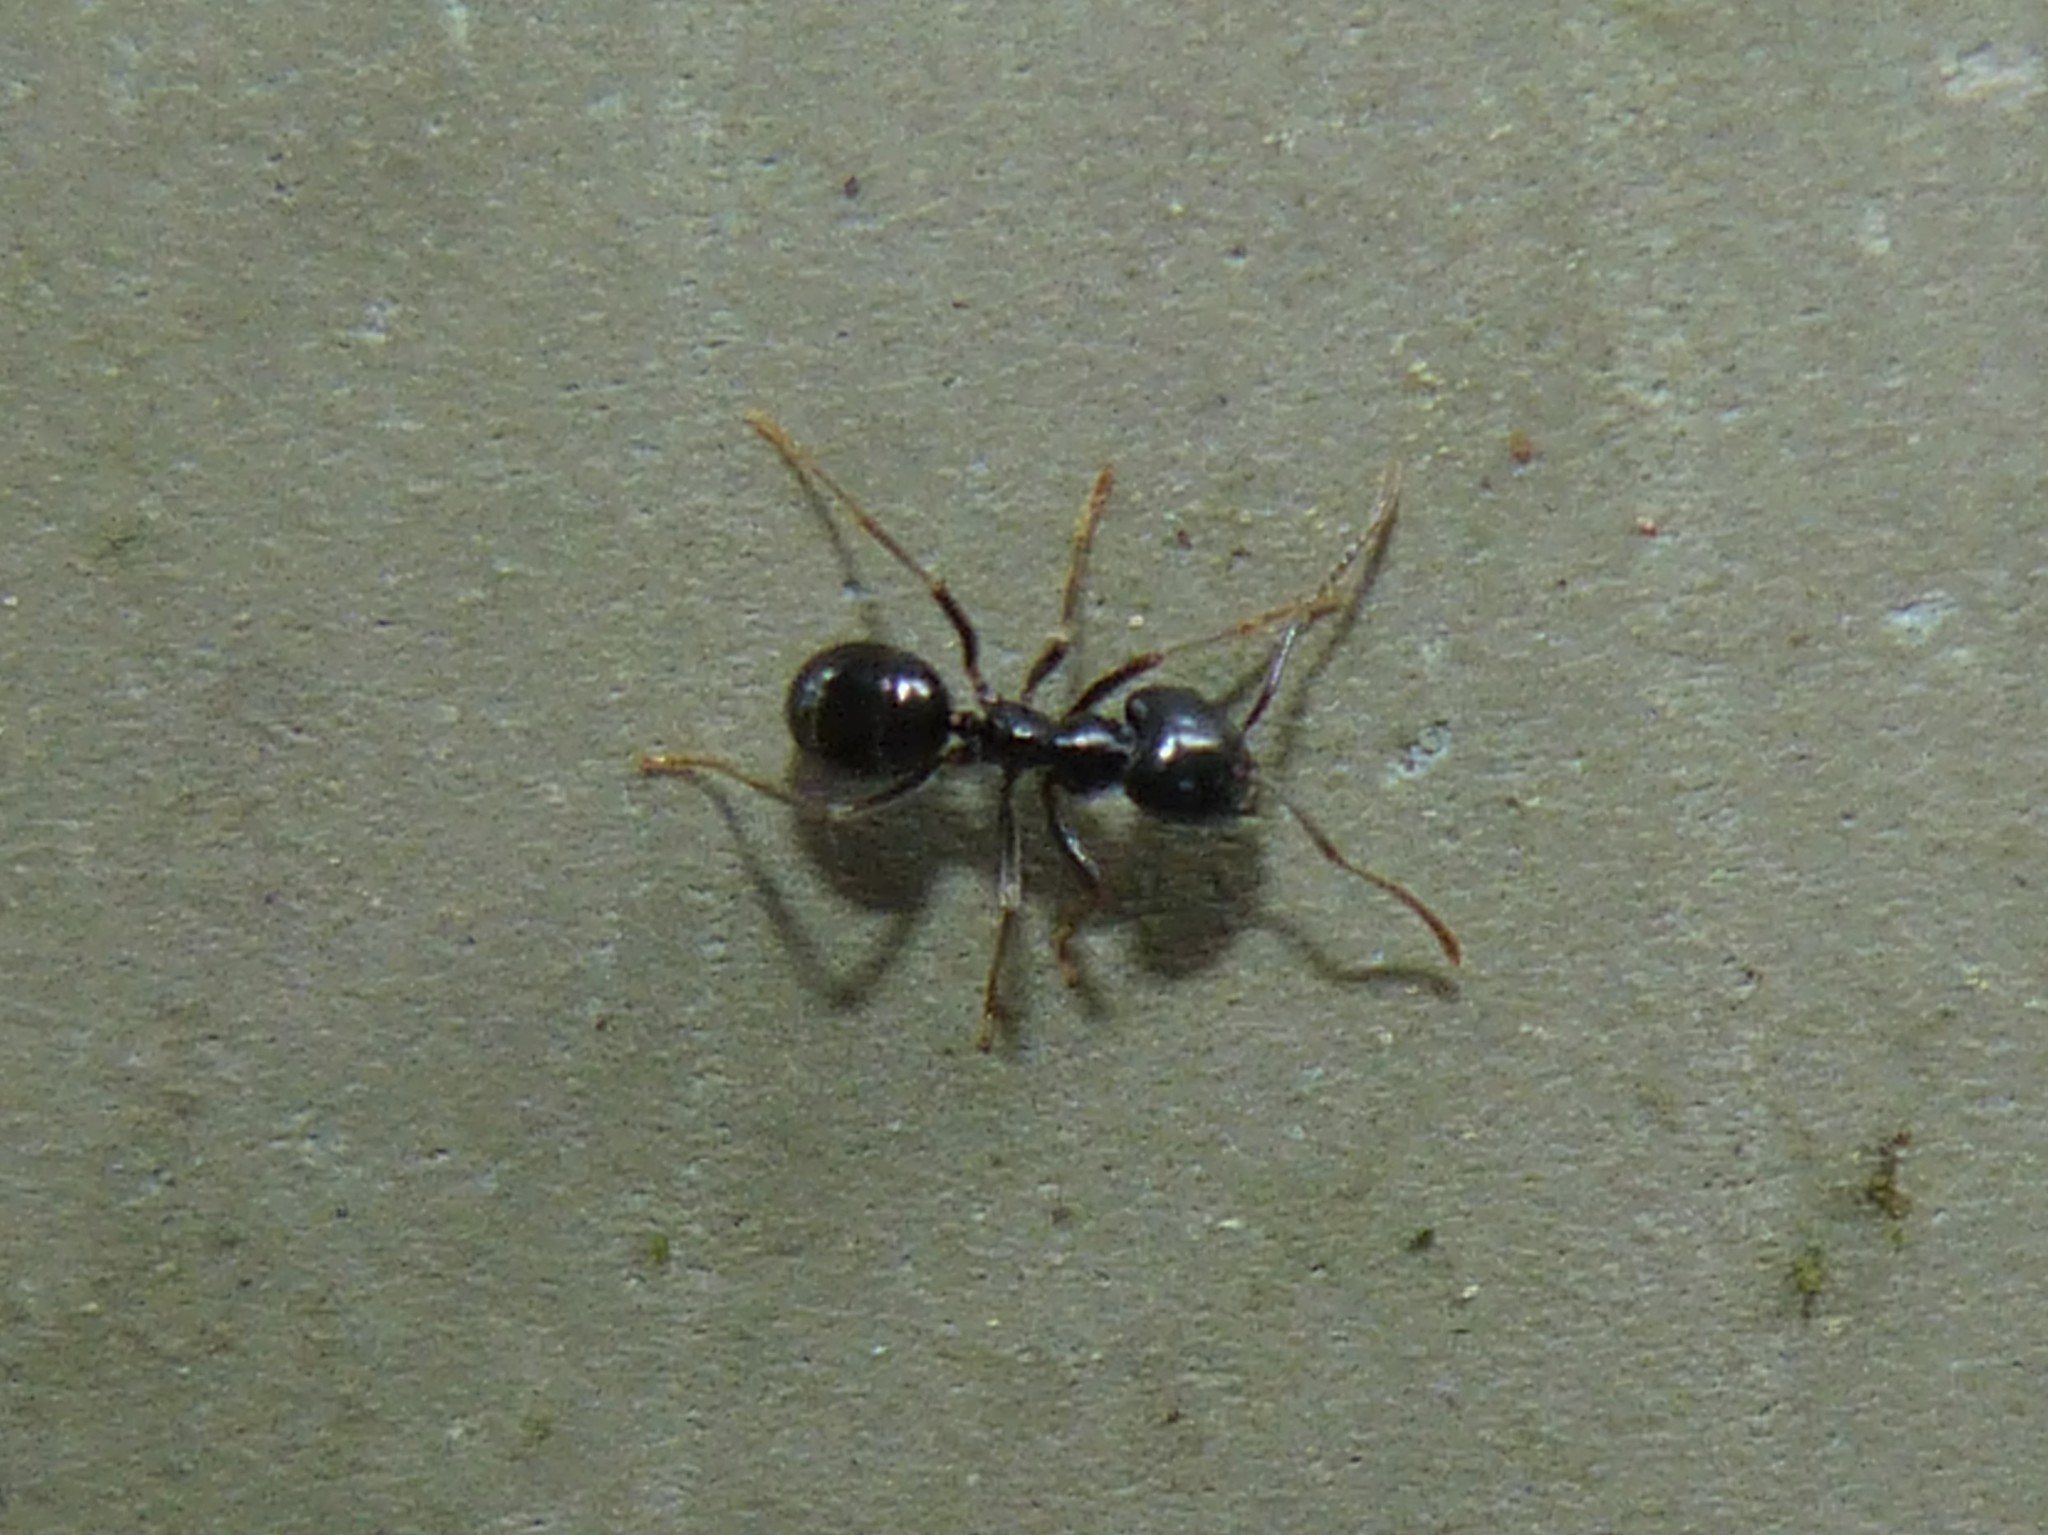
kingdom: Animalia
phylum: Arthropoda
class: Insecta
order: Hymenoptera
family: Formicidae
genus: Lasius
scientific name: Lasius fuliginosus
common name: Jet ant
